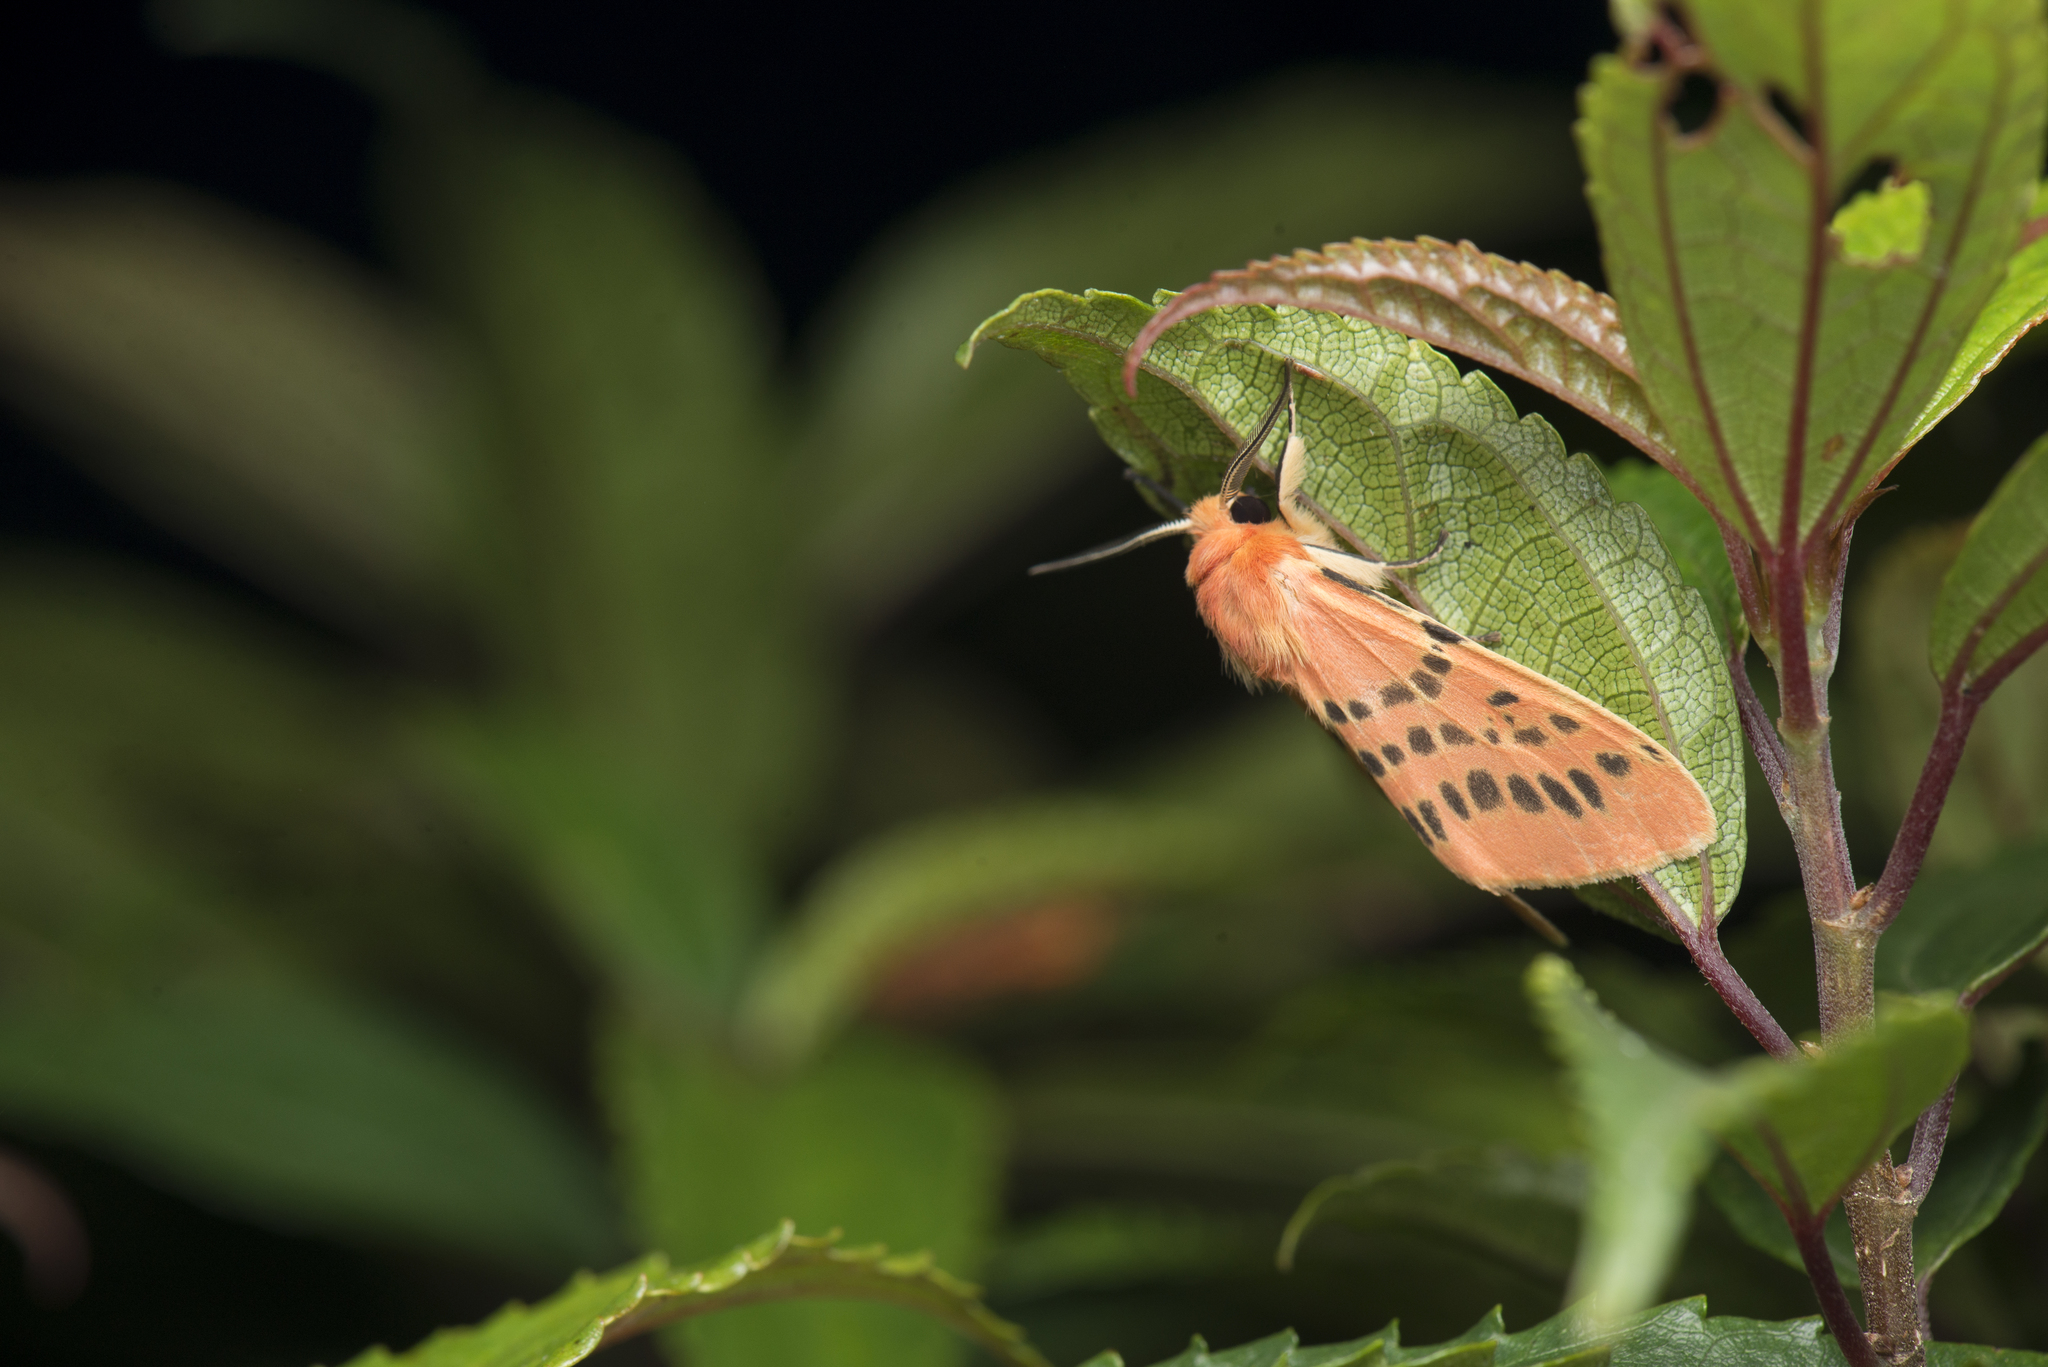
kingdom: Animalia
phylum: Arthropoda
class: Insecta
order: Lepidoptera
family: Erebidae
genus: Lemyra
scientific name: Lemyra alikangensis
